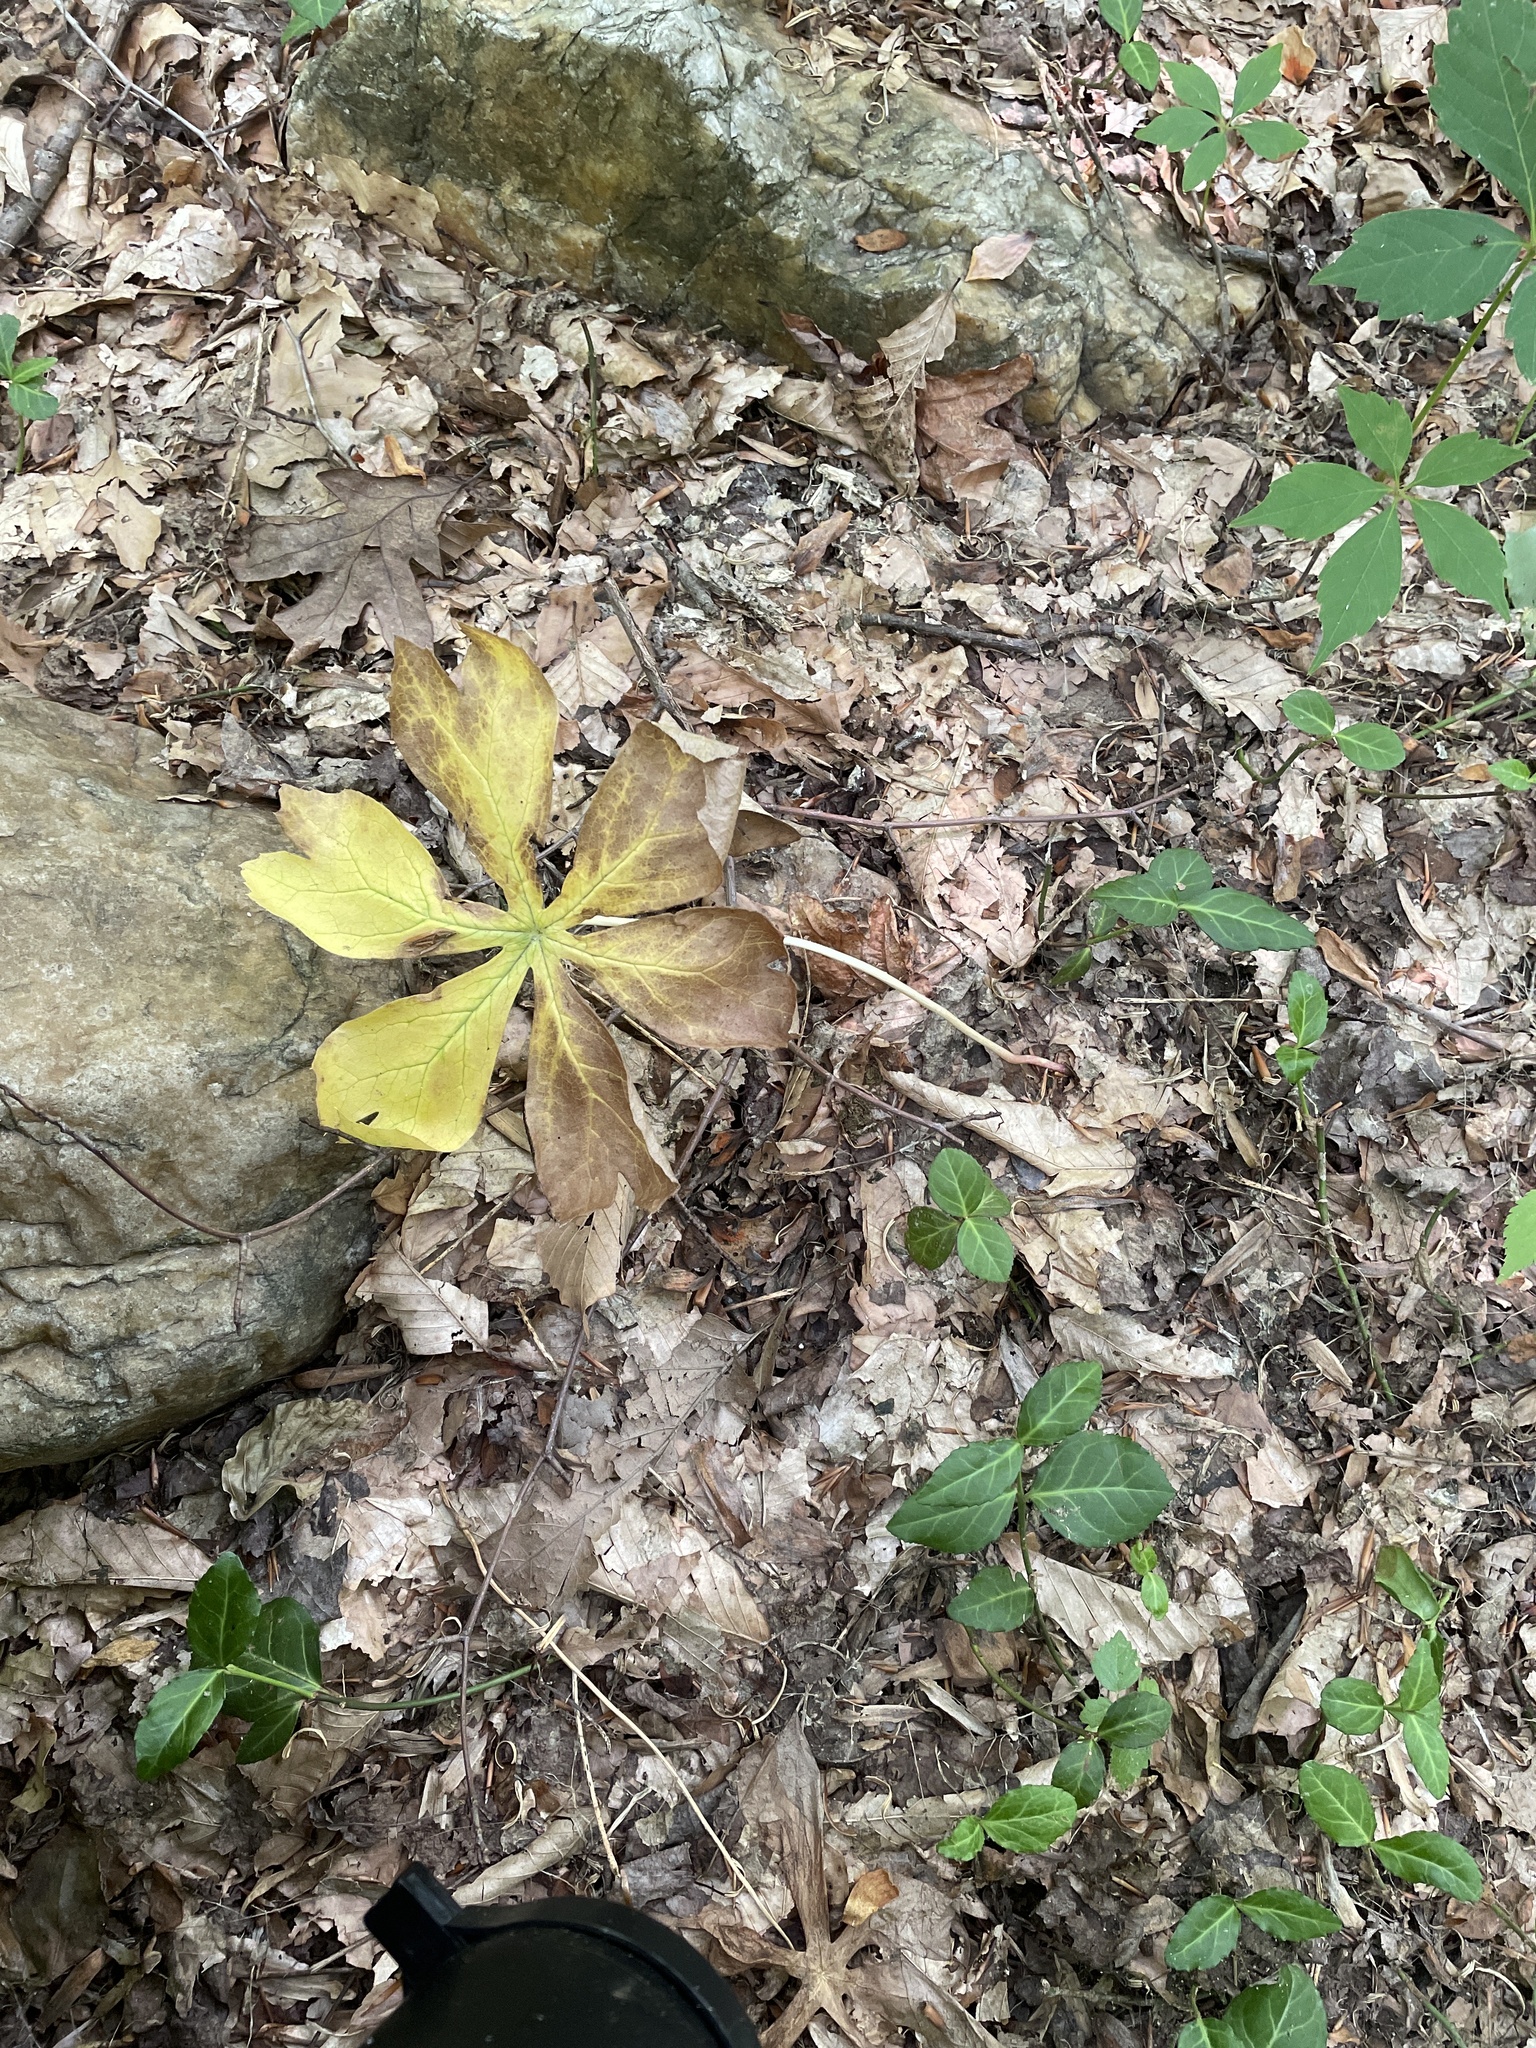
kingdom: Plantae
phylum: Tracheophyta
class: Magnoliopsida
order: Ranunculales
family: Berberidaceae
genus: Podophyllum
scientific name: Podophyllum peltatum
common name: Wild mandrake
